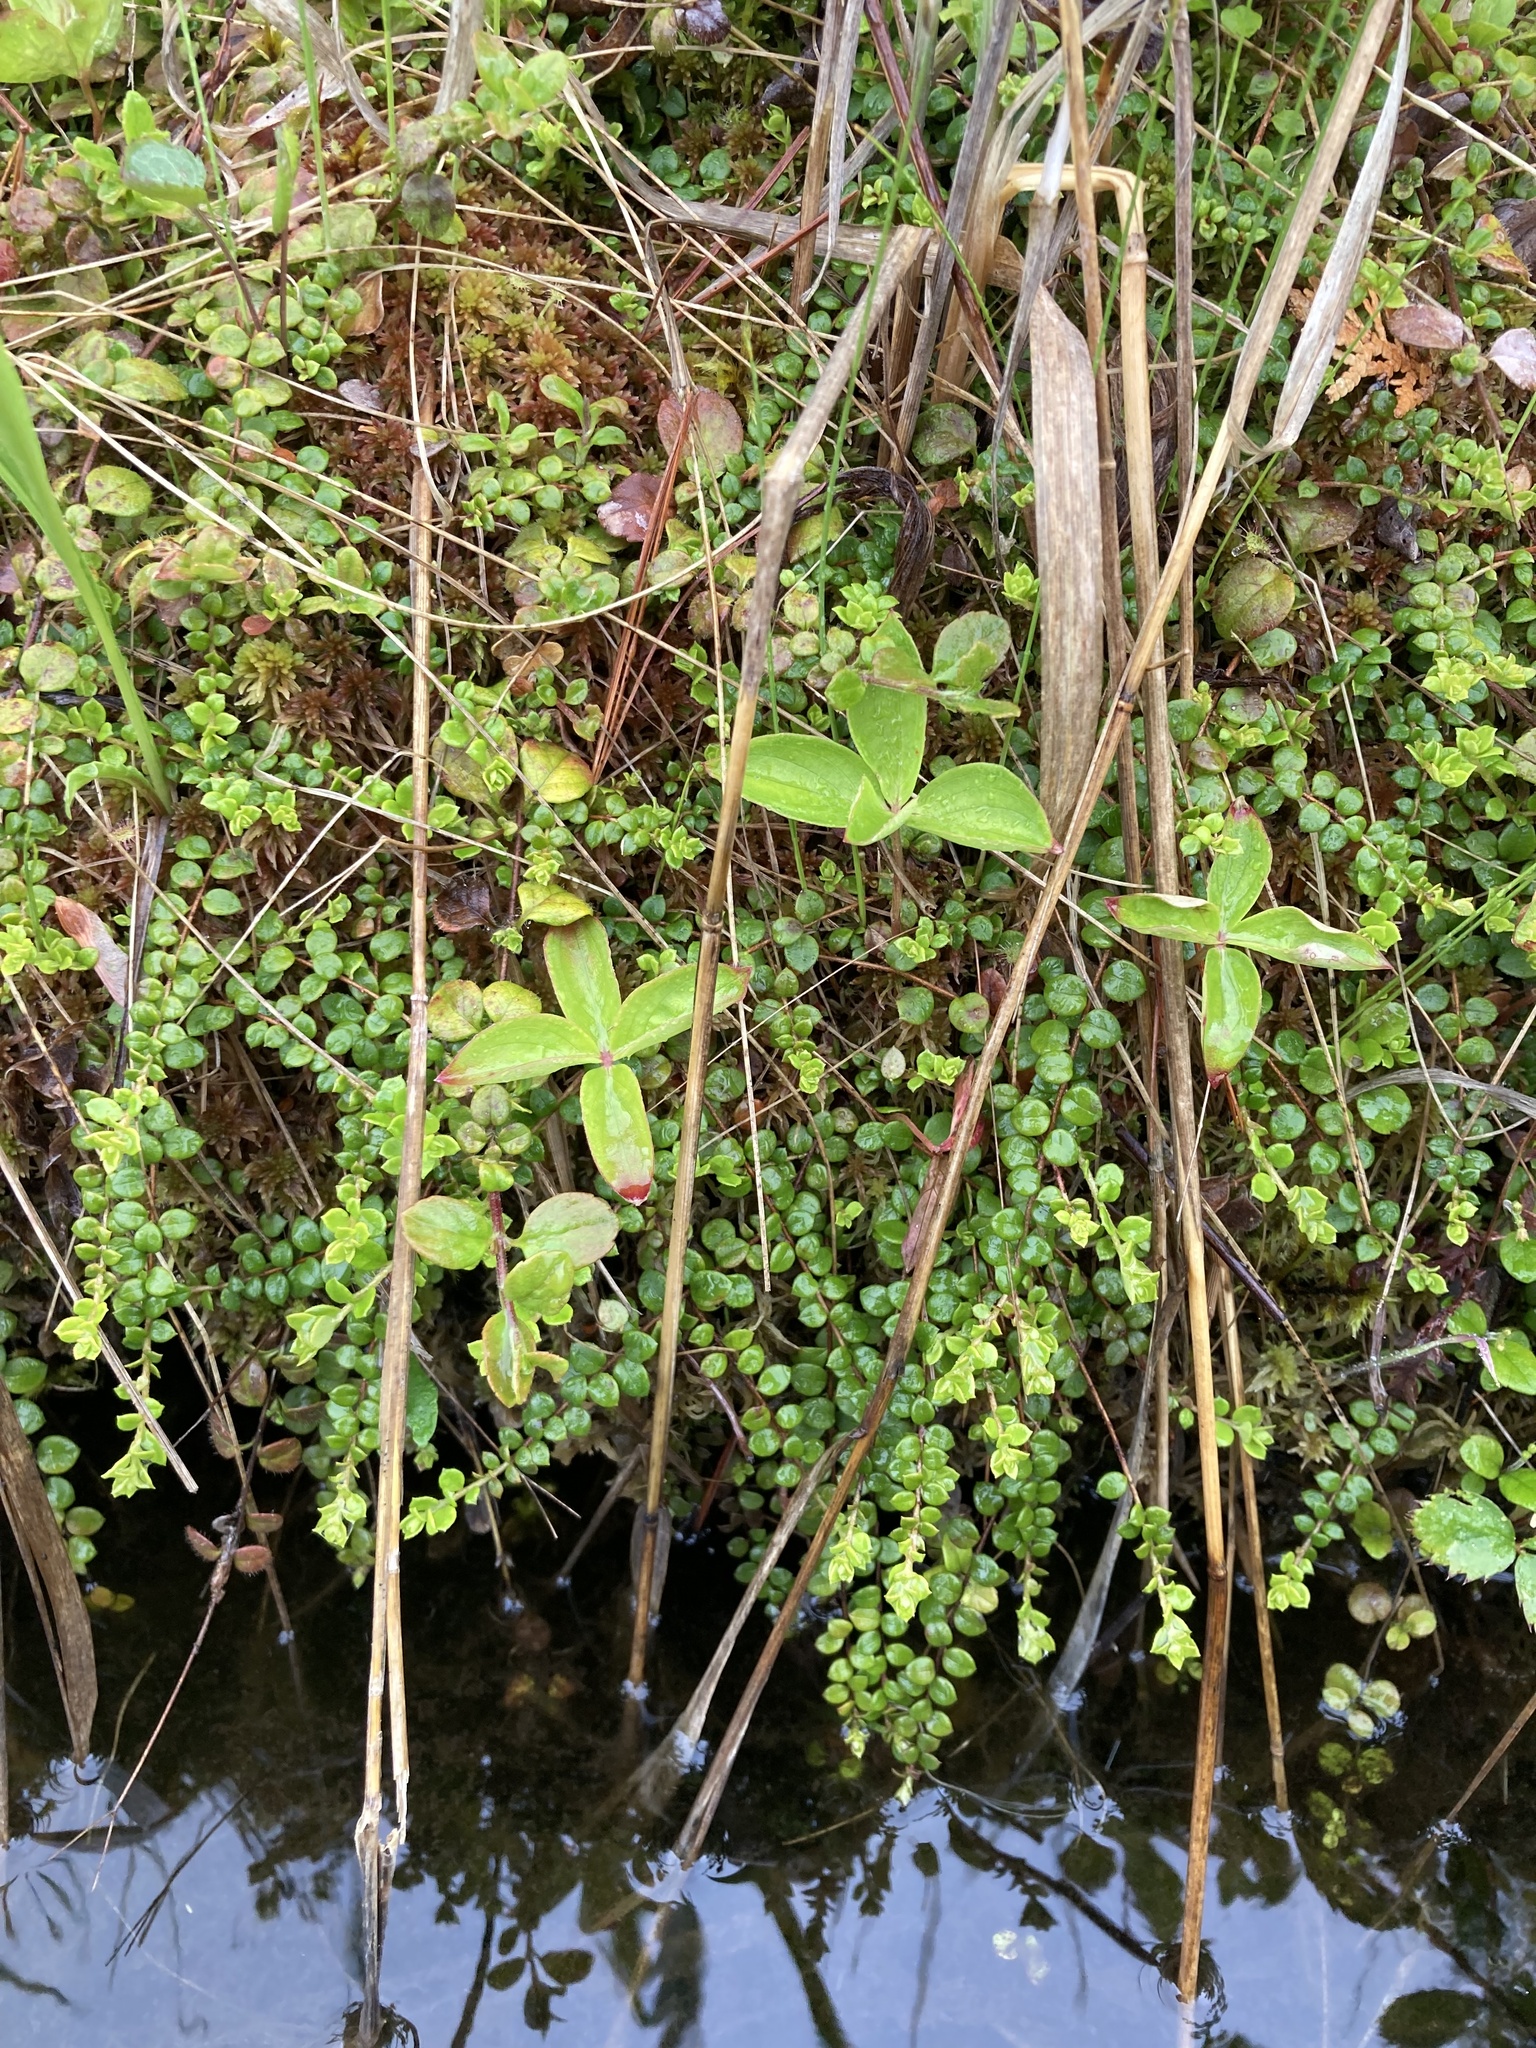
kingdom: Plantae
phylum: Tracheophyta
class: Magnoliopsida
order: Ericales
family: Ericaceae
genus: Gaultheria
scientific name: Gaultheria hispidula
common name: Cancer wintergreen
